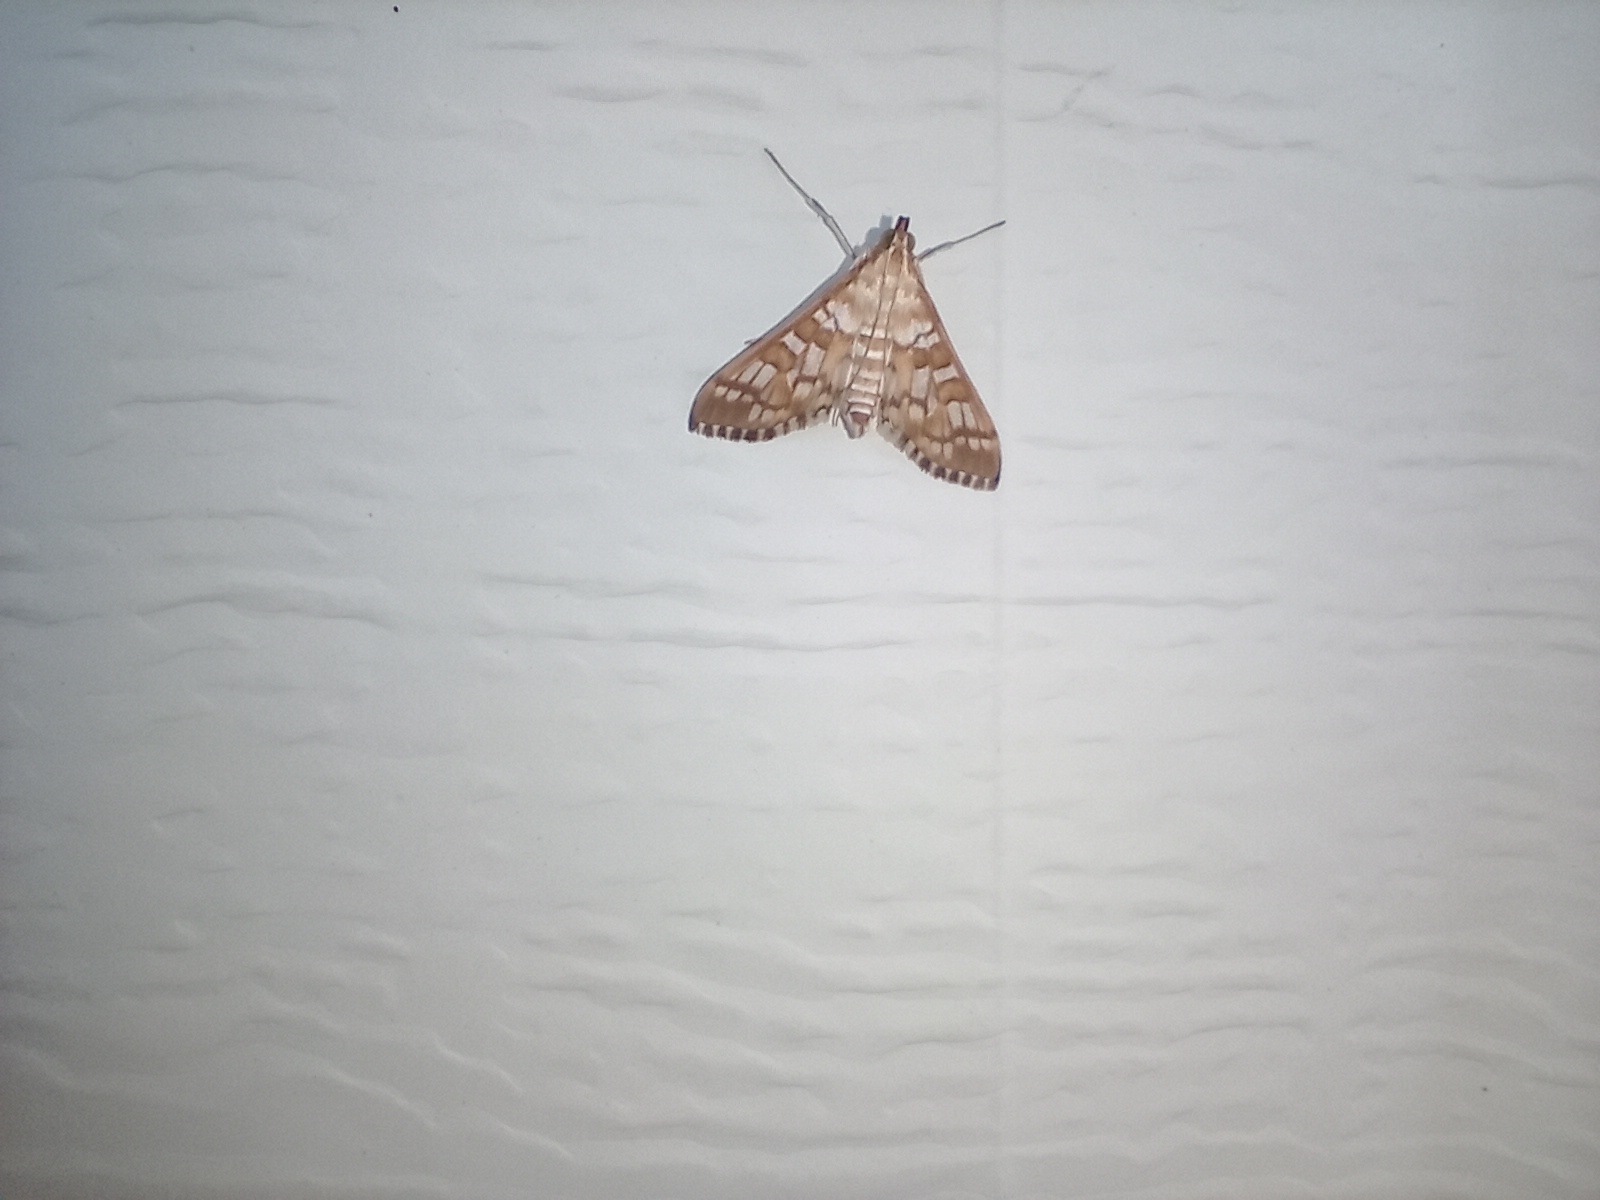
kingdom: Animalia
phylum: Arthropoda
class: Insecta
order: Lepidoptera
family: Crambidae
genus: Epipagis
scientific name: Epipagis fenestralis
